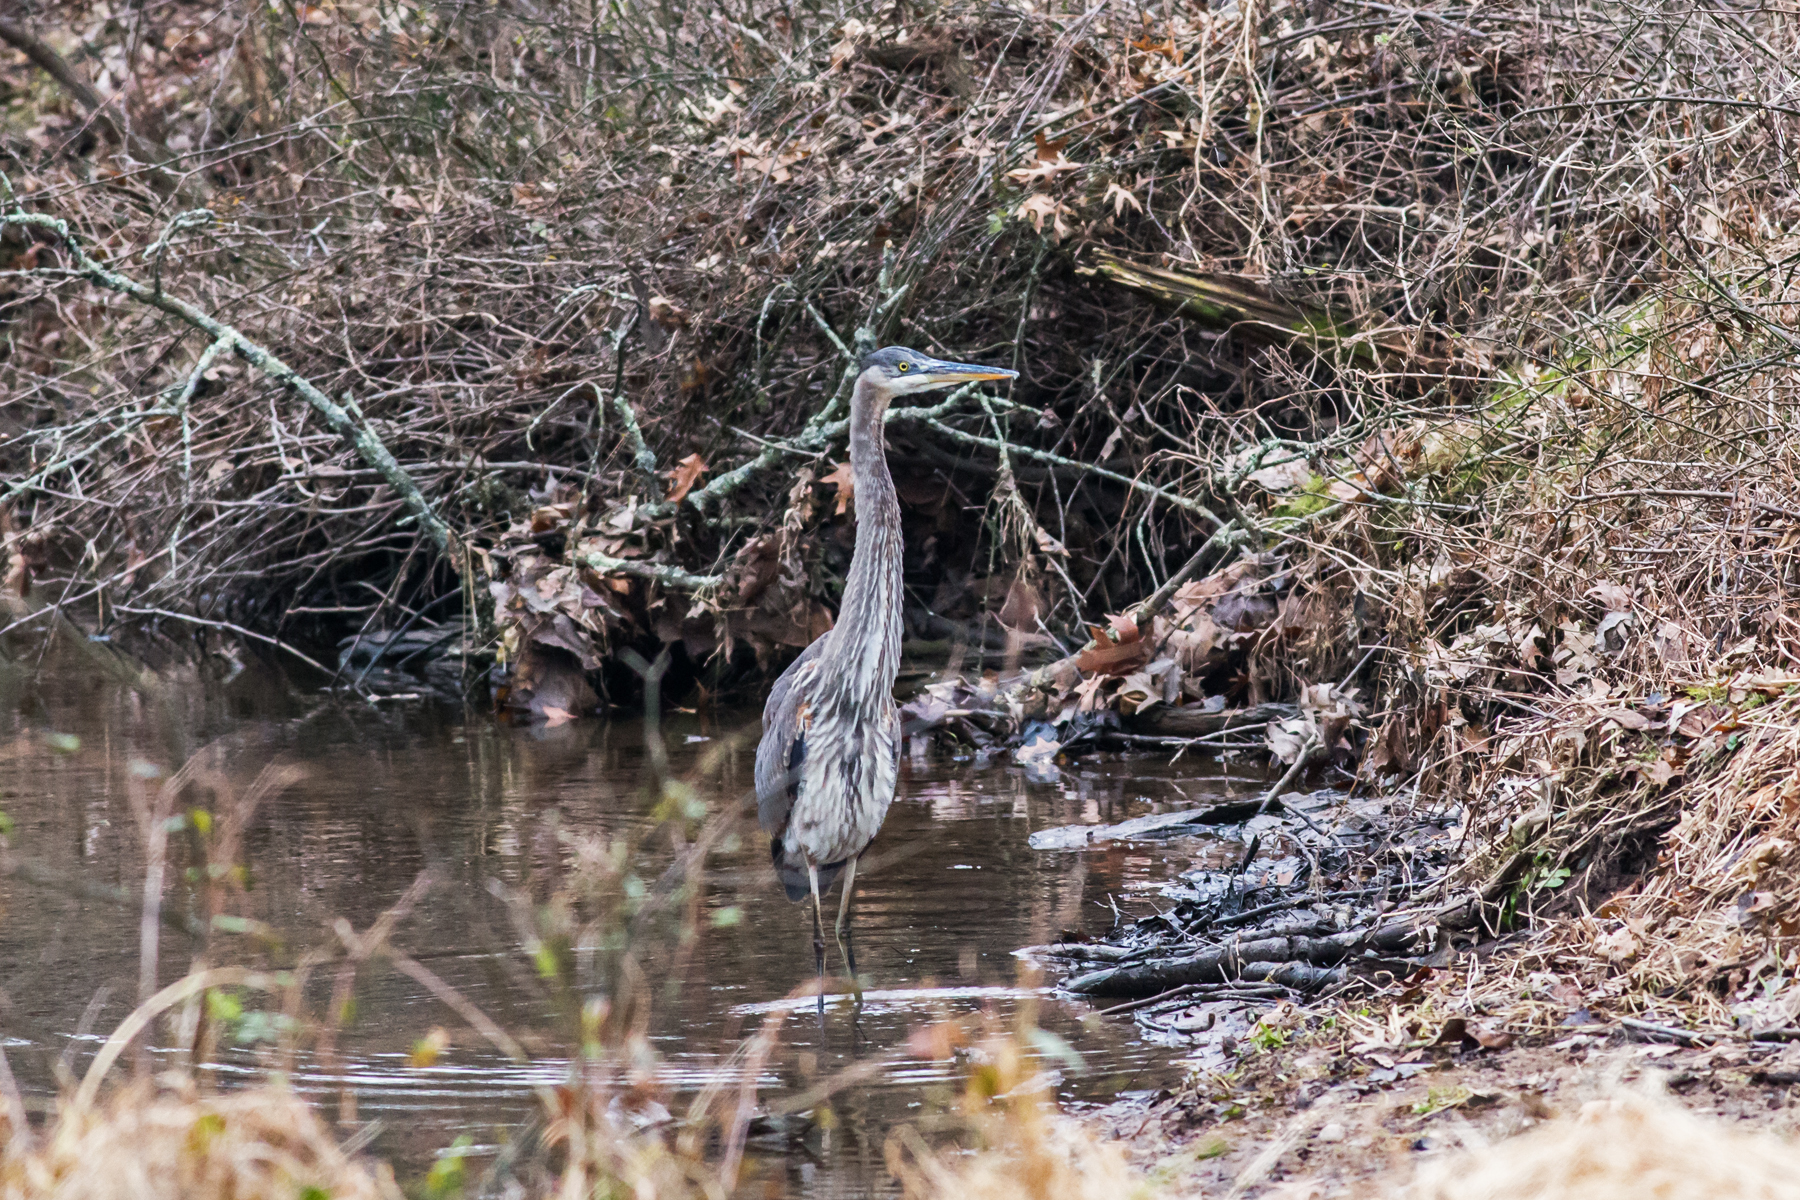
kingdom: Animalia
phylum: Chordata
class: Aves
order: Pelecaniformes
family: Ardeidae
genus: Ardea
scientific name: Ardea herodias
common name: Great blue heron
